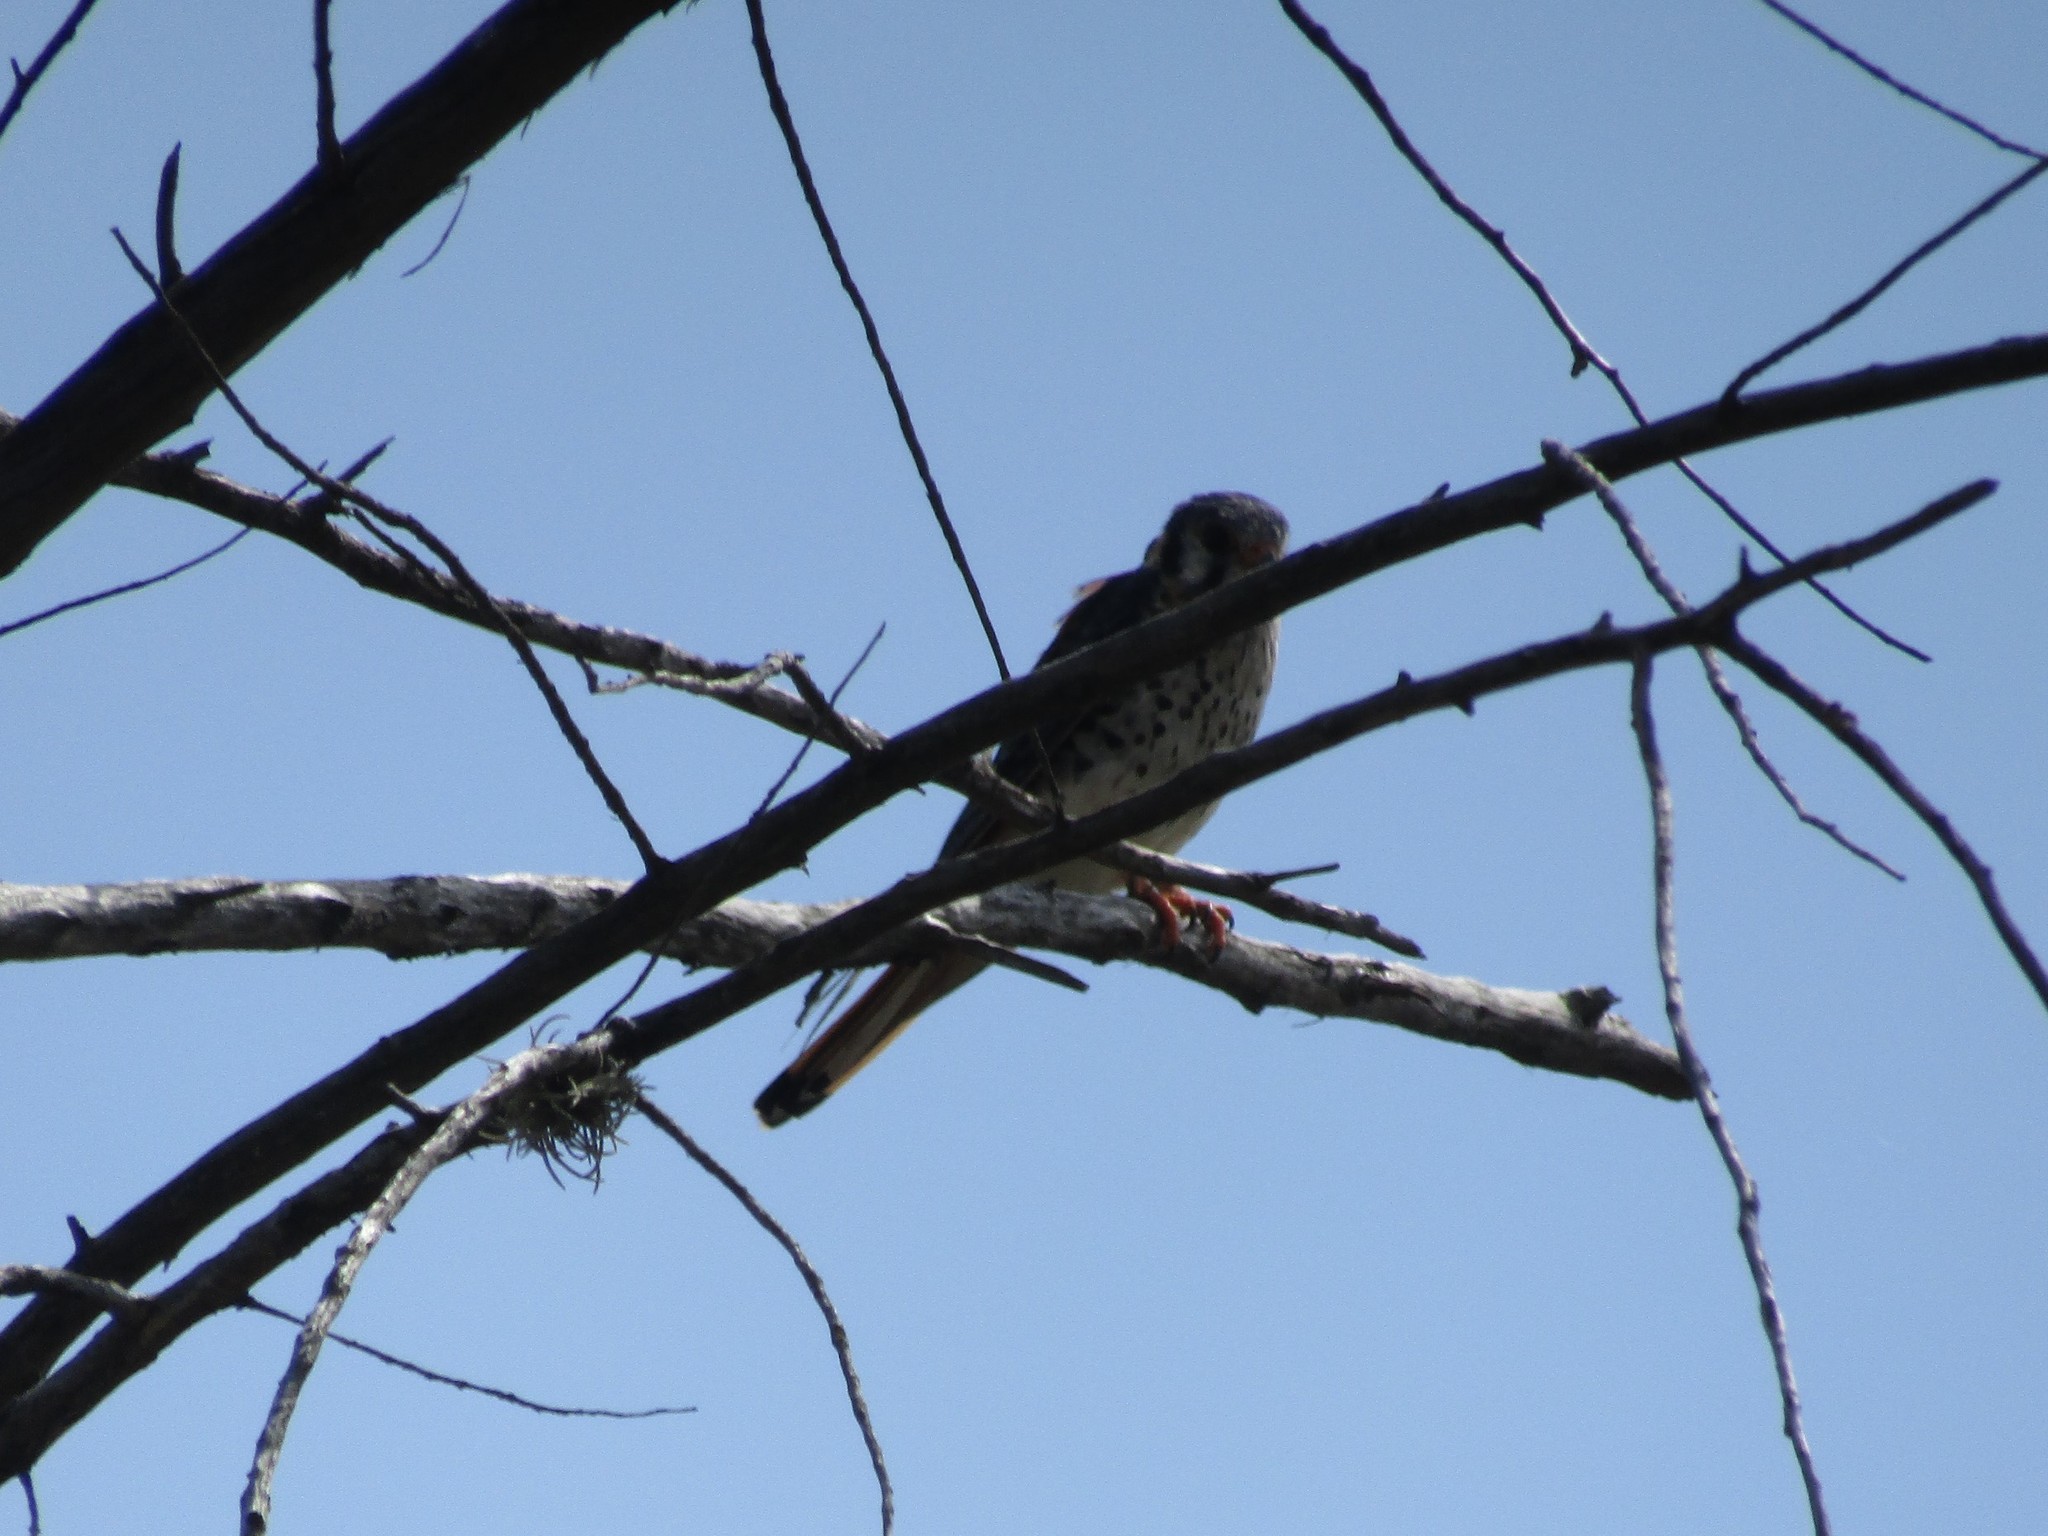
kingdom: Animalia
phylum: Chordata
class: Aves
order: Falconiformes
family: Falconidae
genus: Falco
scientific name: Falco sparverius
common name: American kestrel
